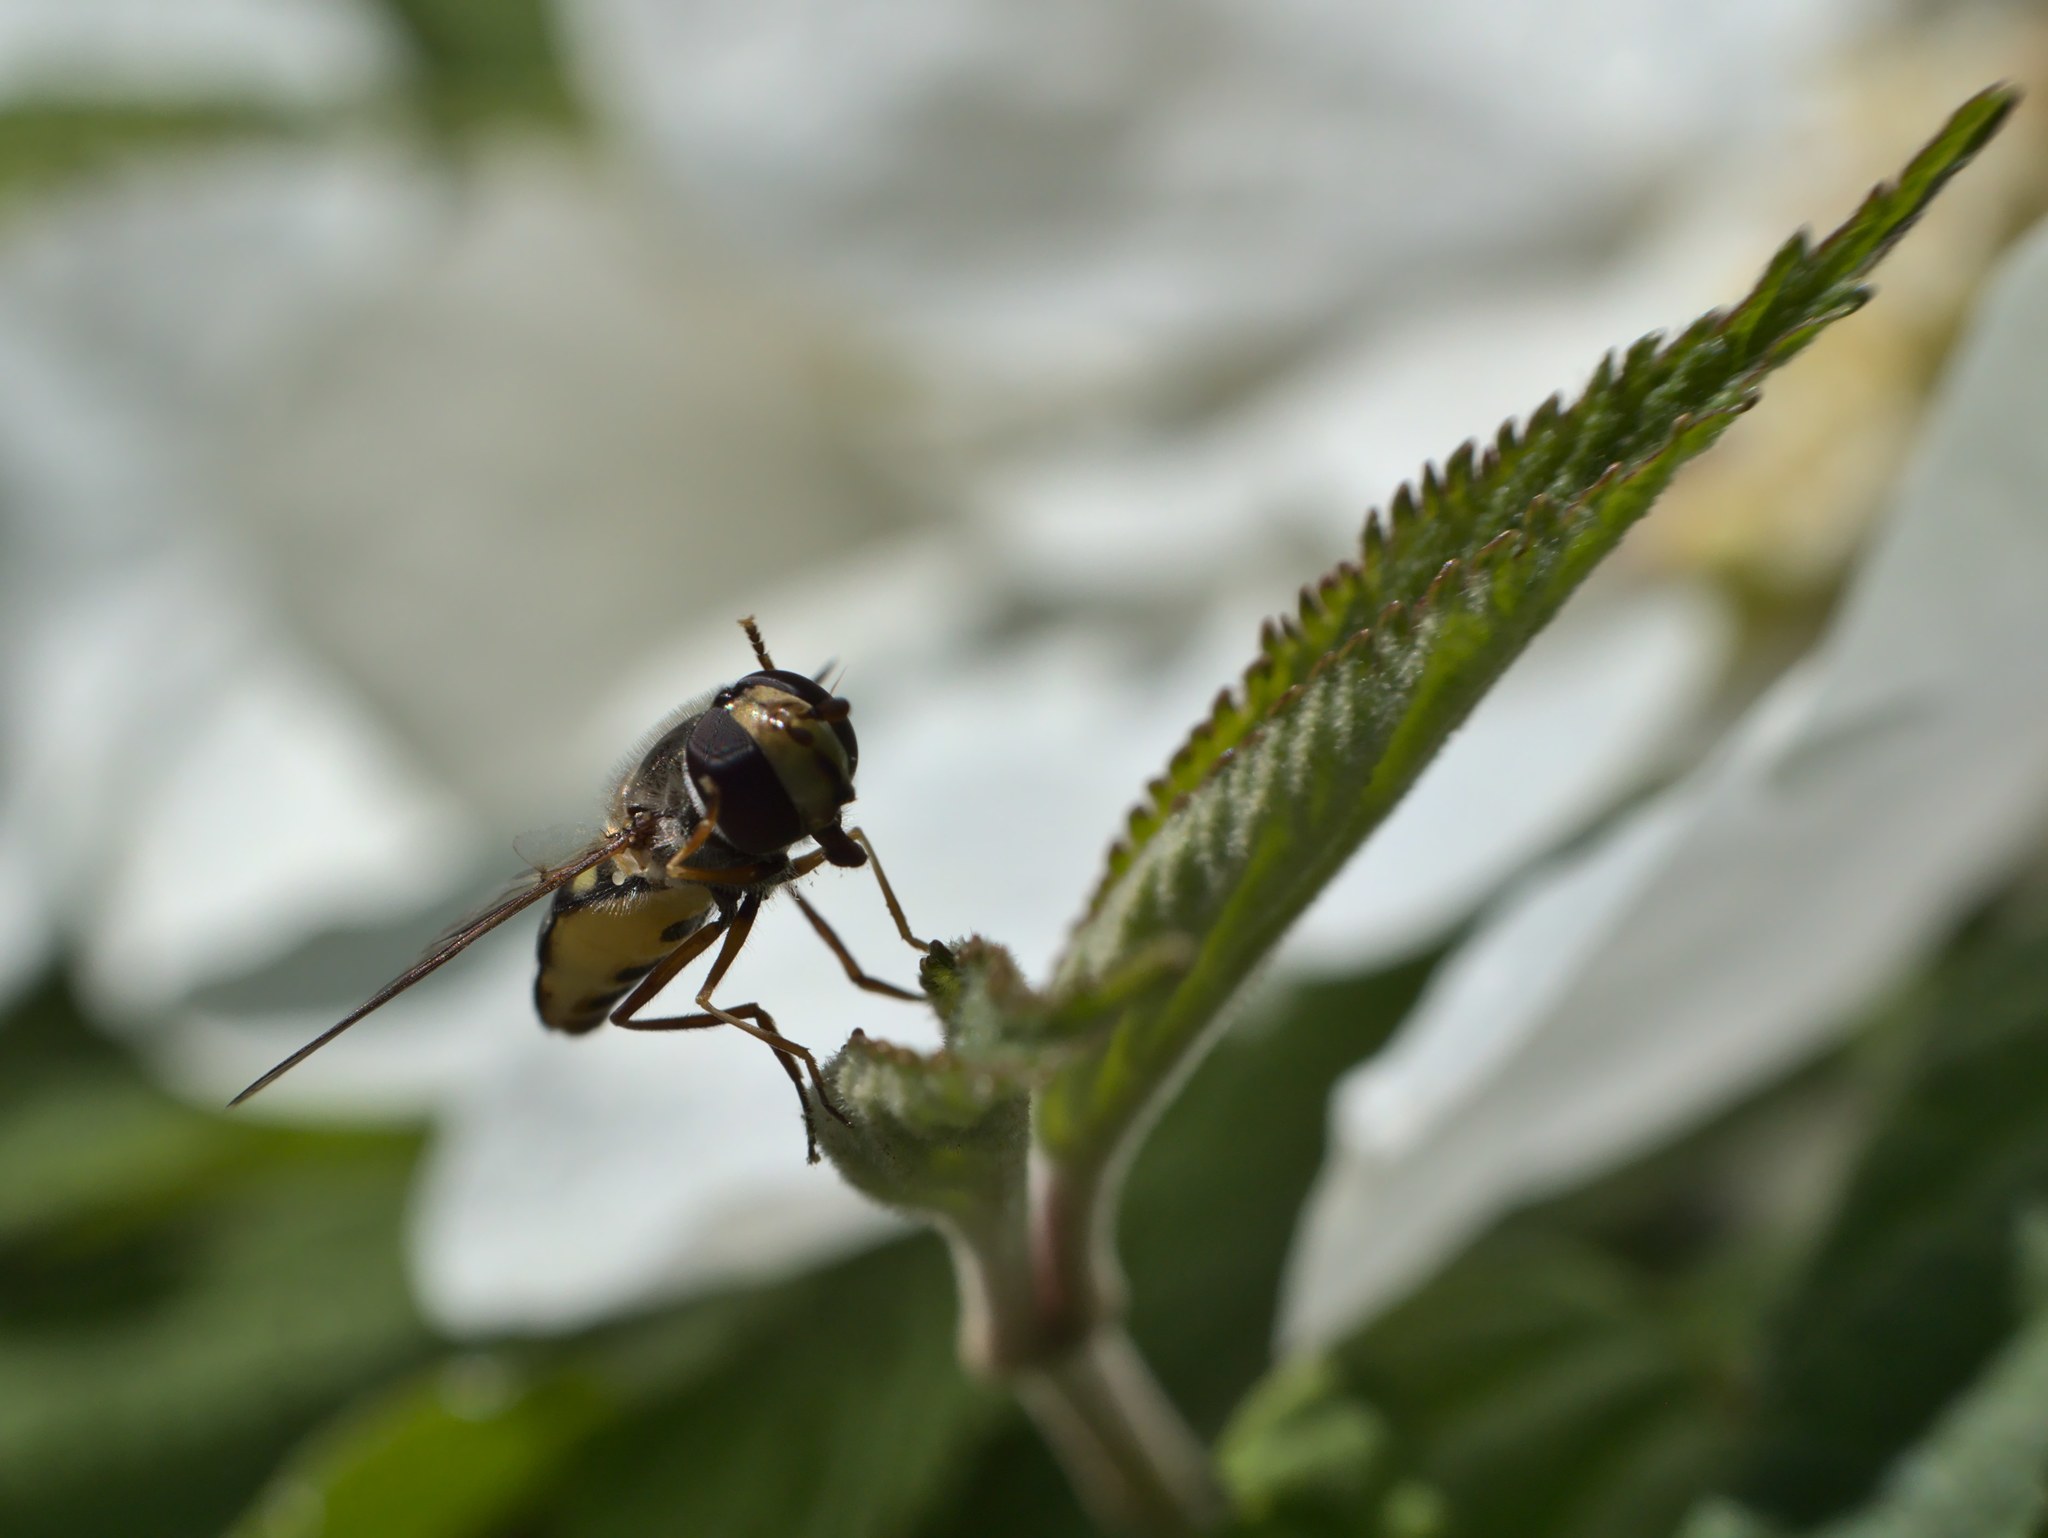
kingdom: Animalia
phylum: Arthropoda
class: Insecta
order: Diptera
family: Syrphidae
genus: Eupeodes
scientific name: Eupeodes fumipennis
